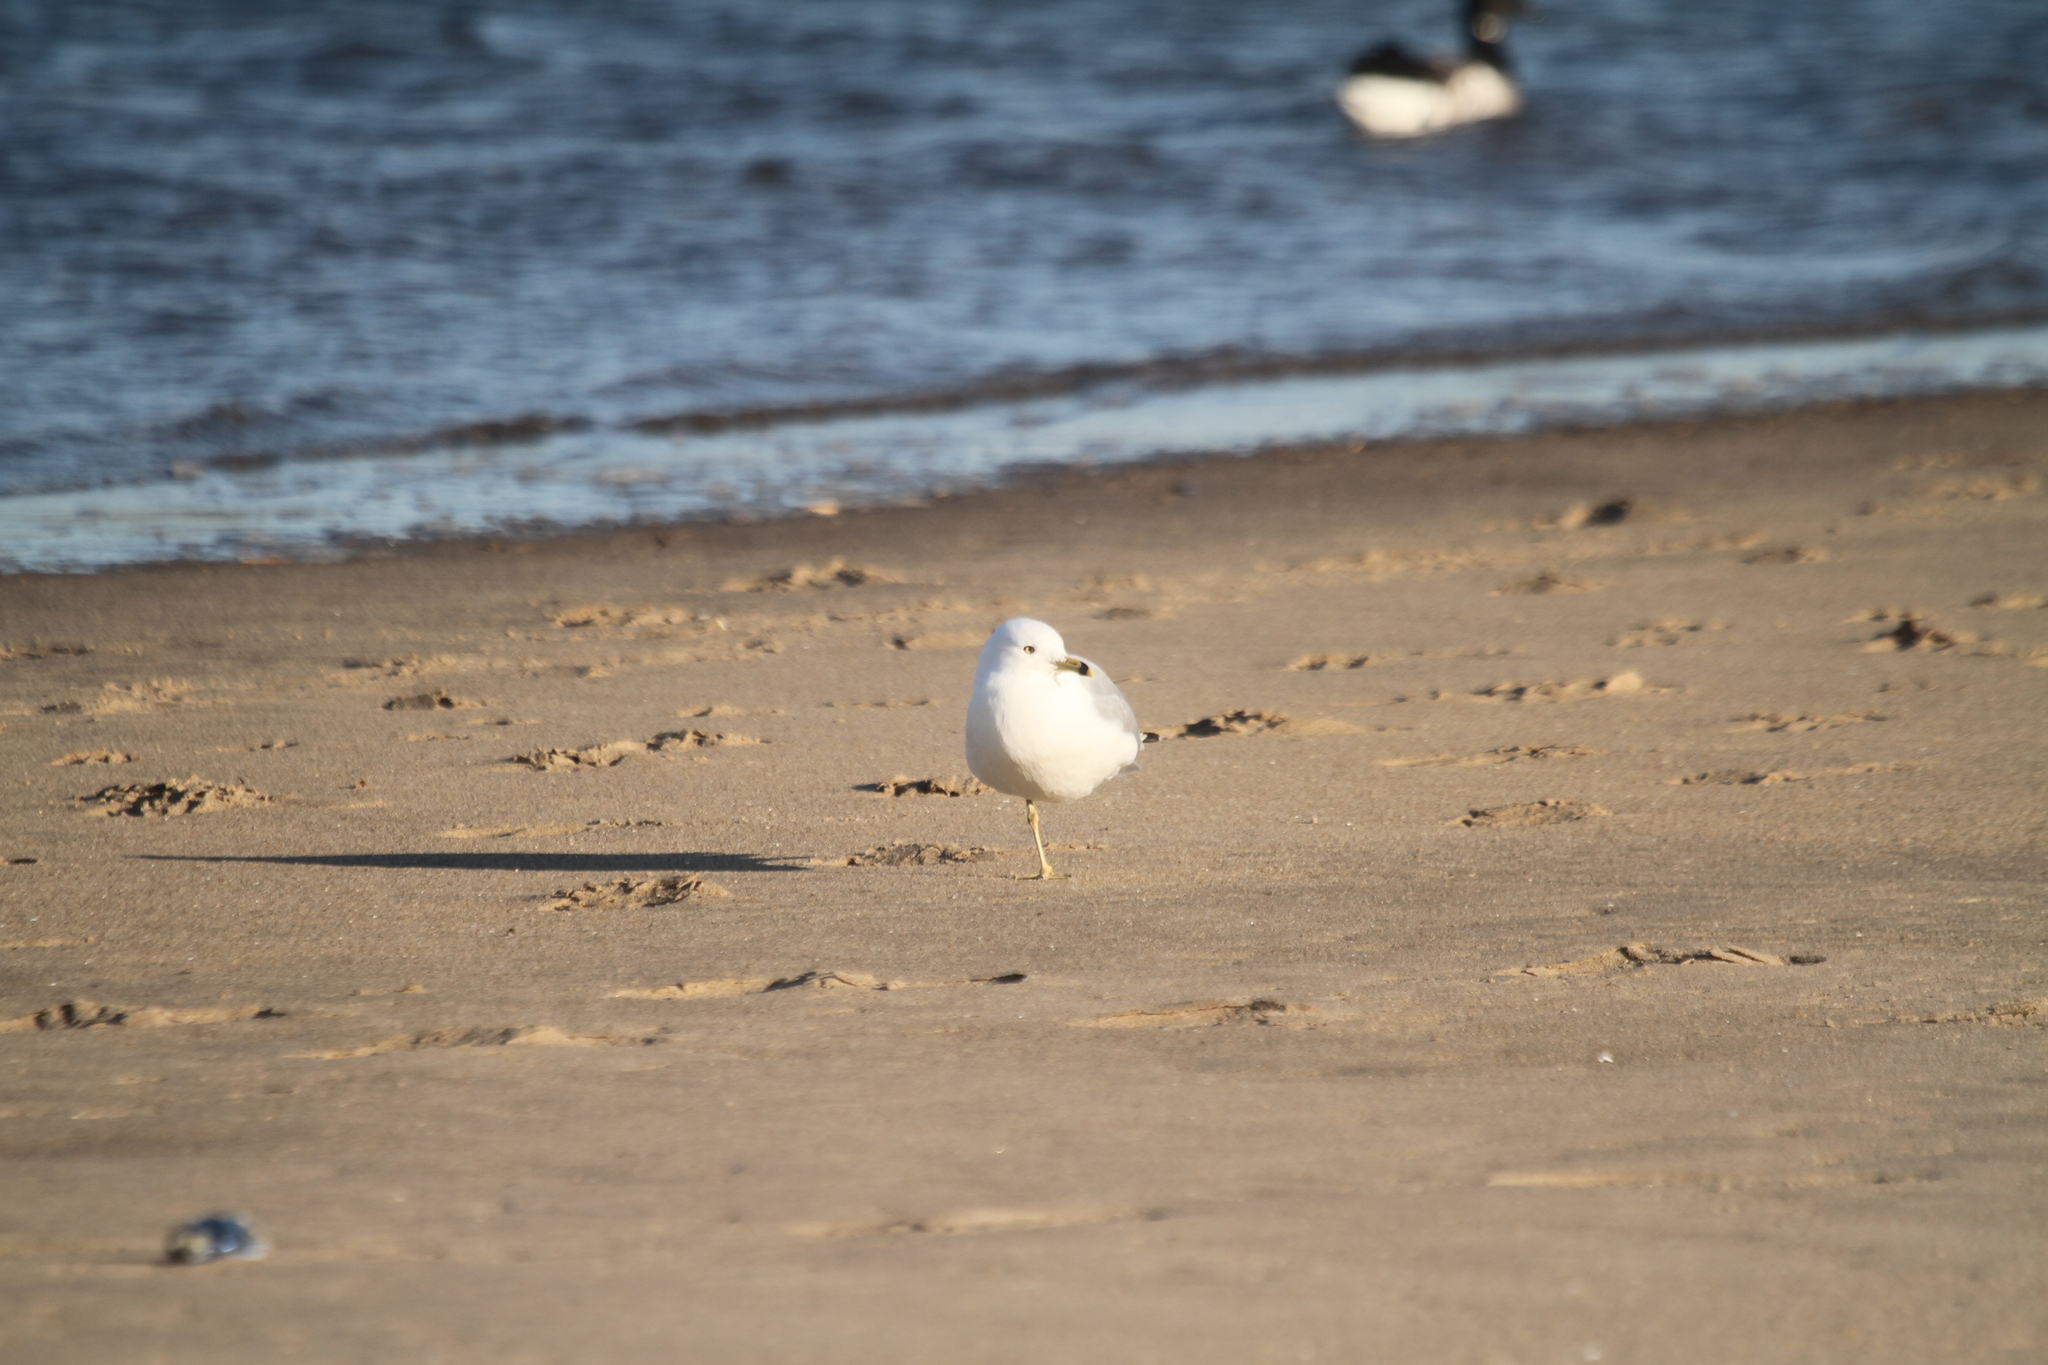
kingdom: Animalia
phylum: Chordata
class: Aves
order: Charadriiformes
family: Laridae
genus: Larus
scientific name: Larus delawarensis
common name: Ring-billed gull
